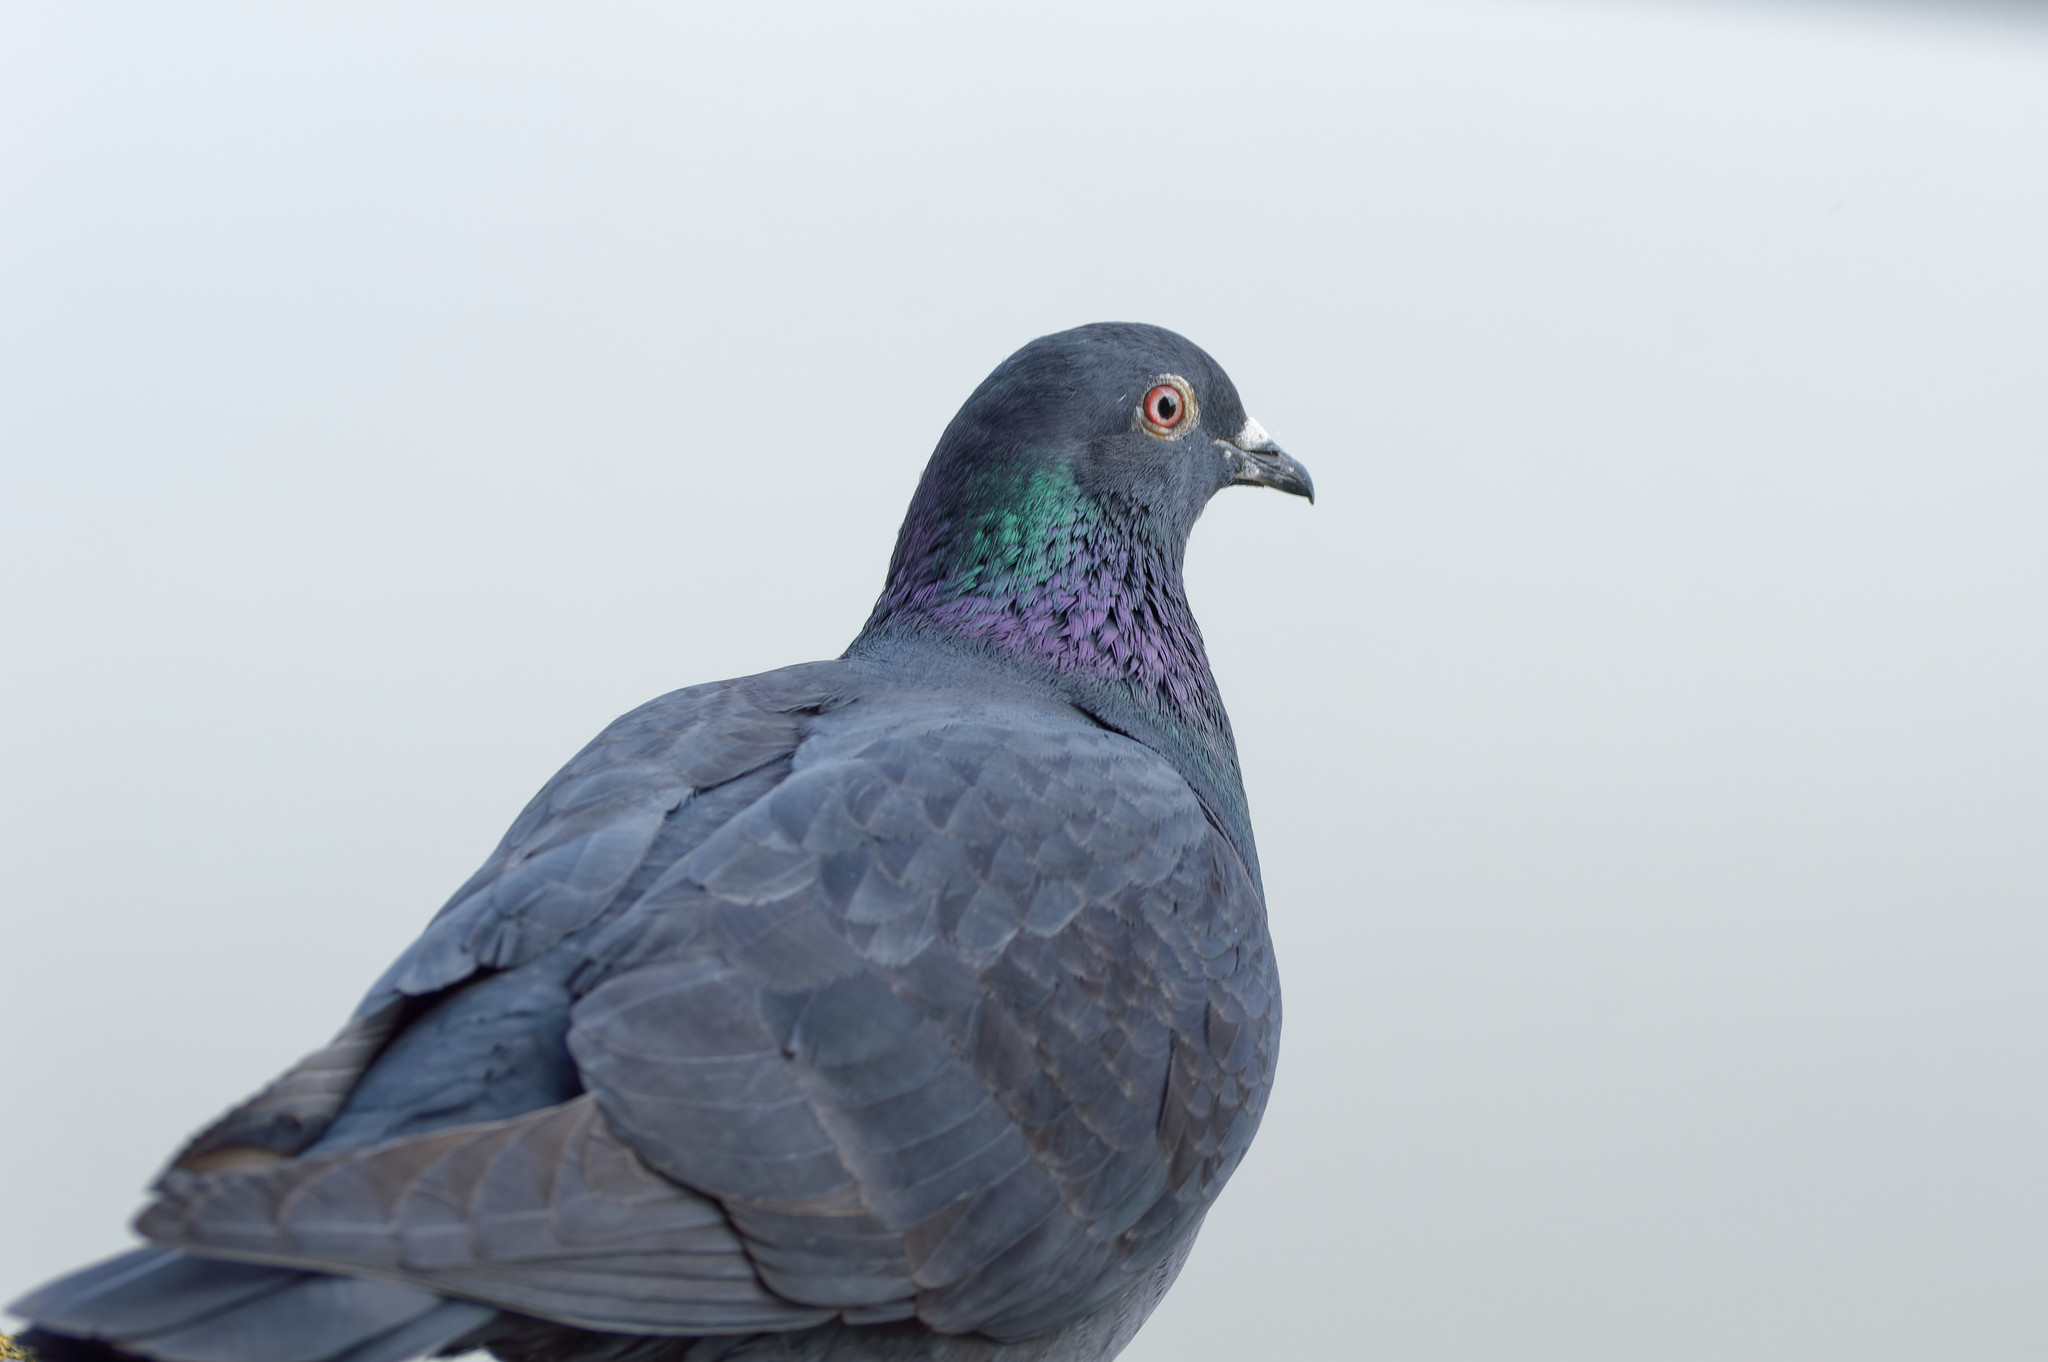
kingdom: Animalia
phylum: Chordata
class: Aves
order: Columbiformes
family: Columbidae
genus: Columba
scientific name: Columba livia
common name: Rock pigeon
